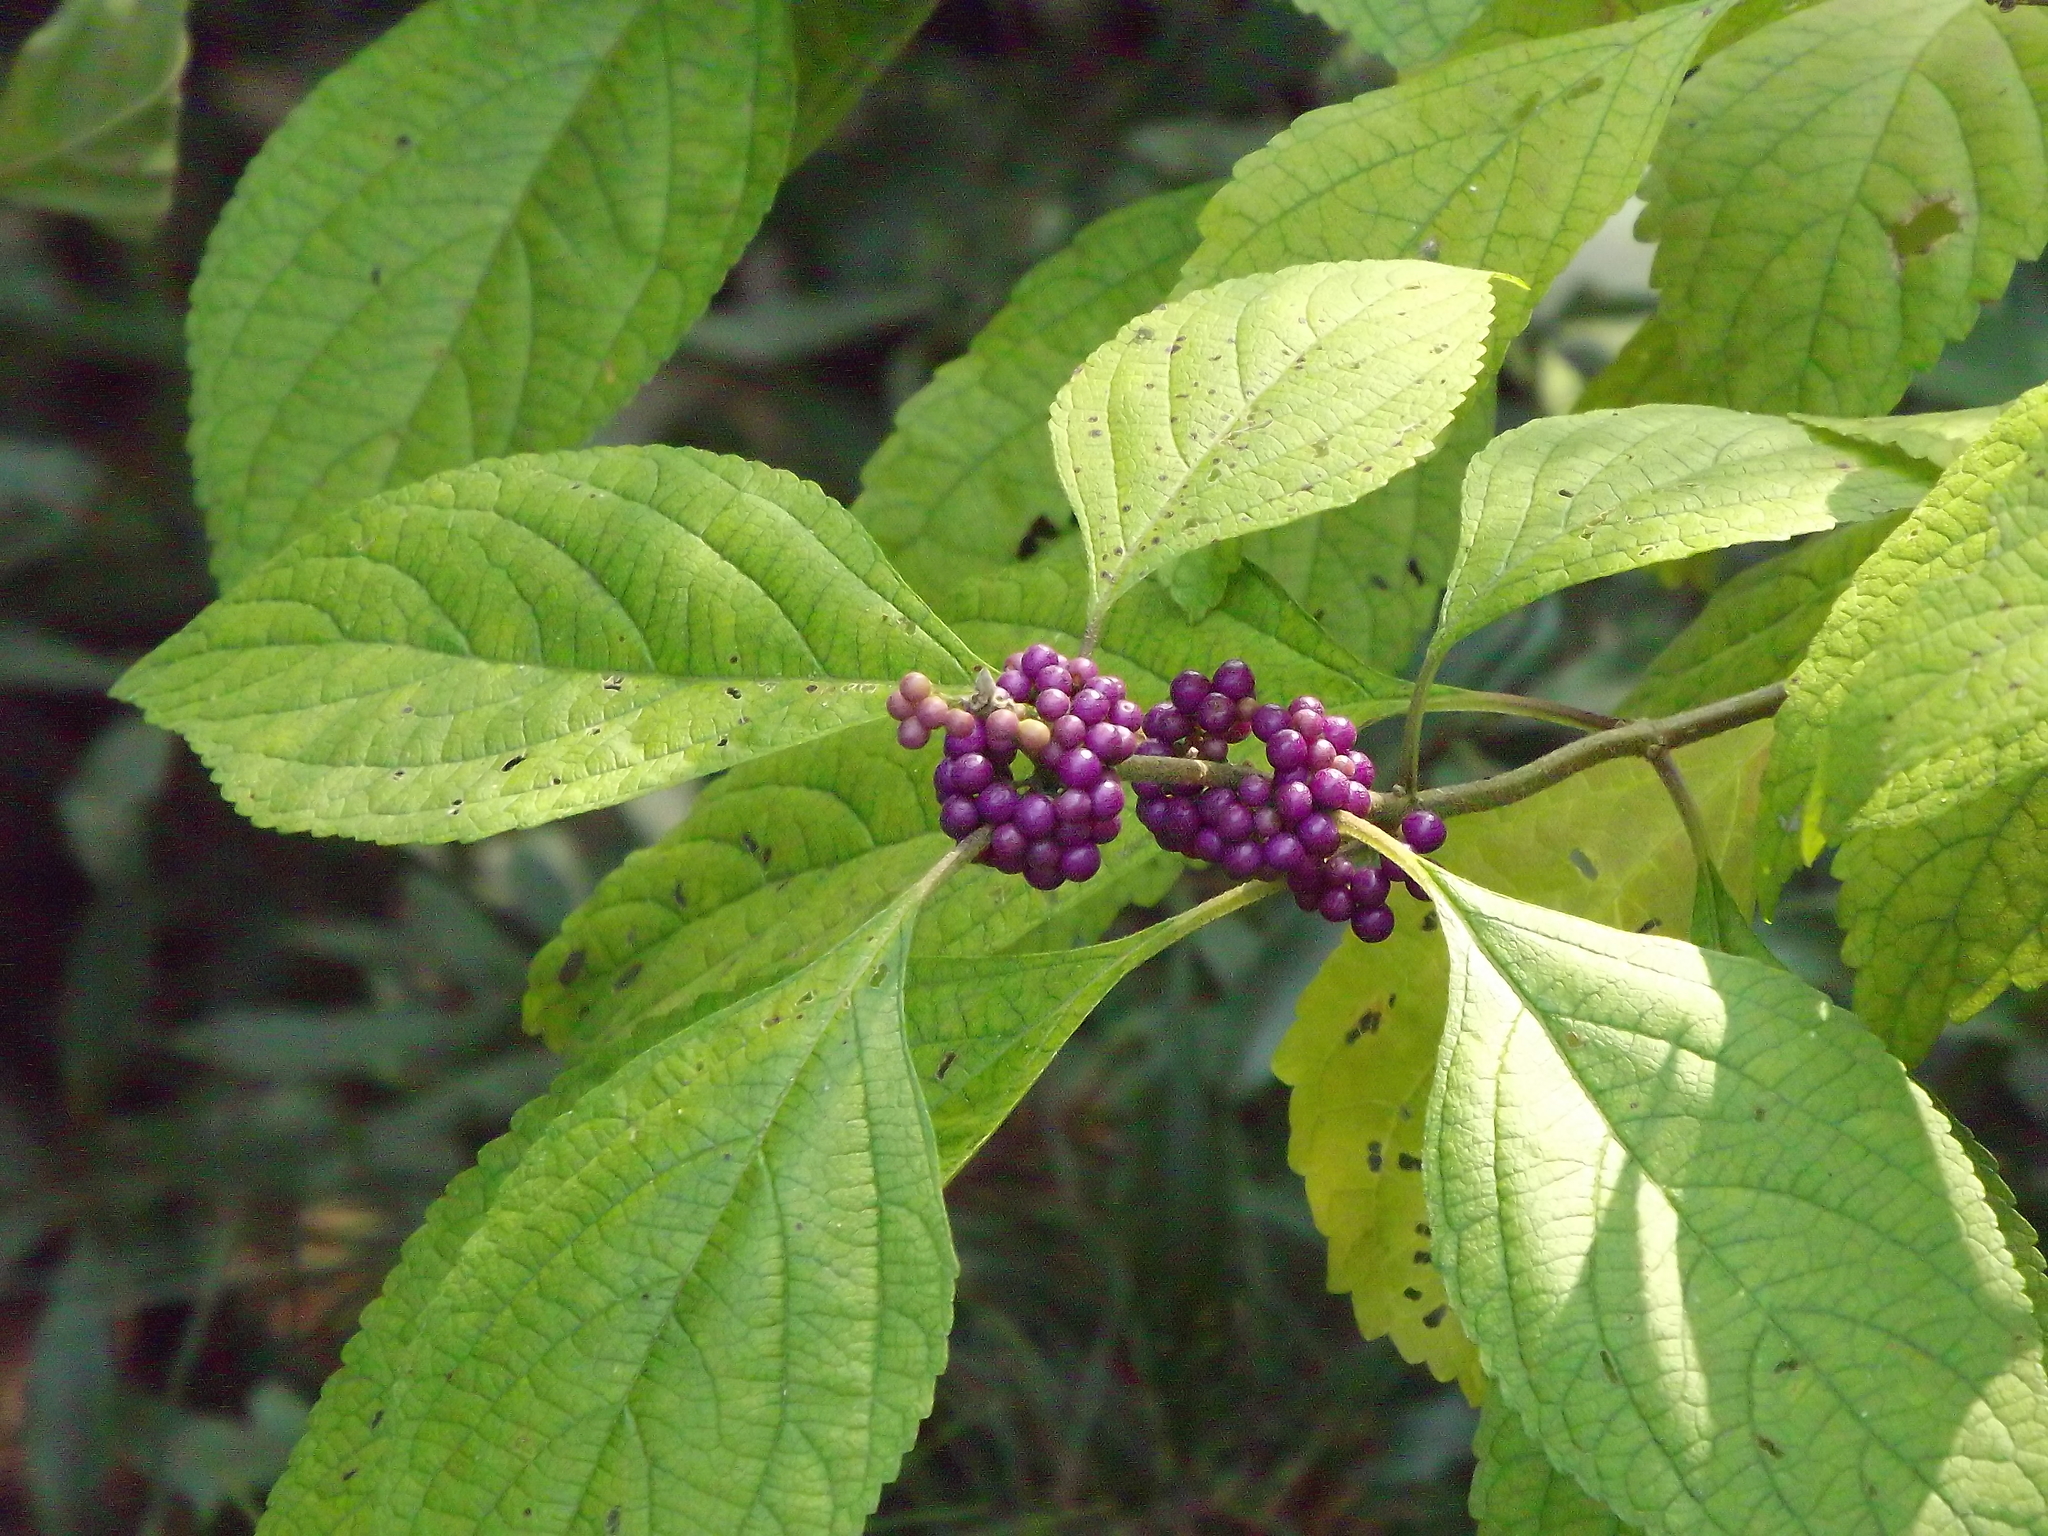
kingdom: Plantae
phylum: Tracheophyta
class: Magnoliopsida
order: Lamiales
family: Lamiaceae
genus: Callicarpa
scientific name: Callicarpa americana
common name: American beautyberry
